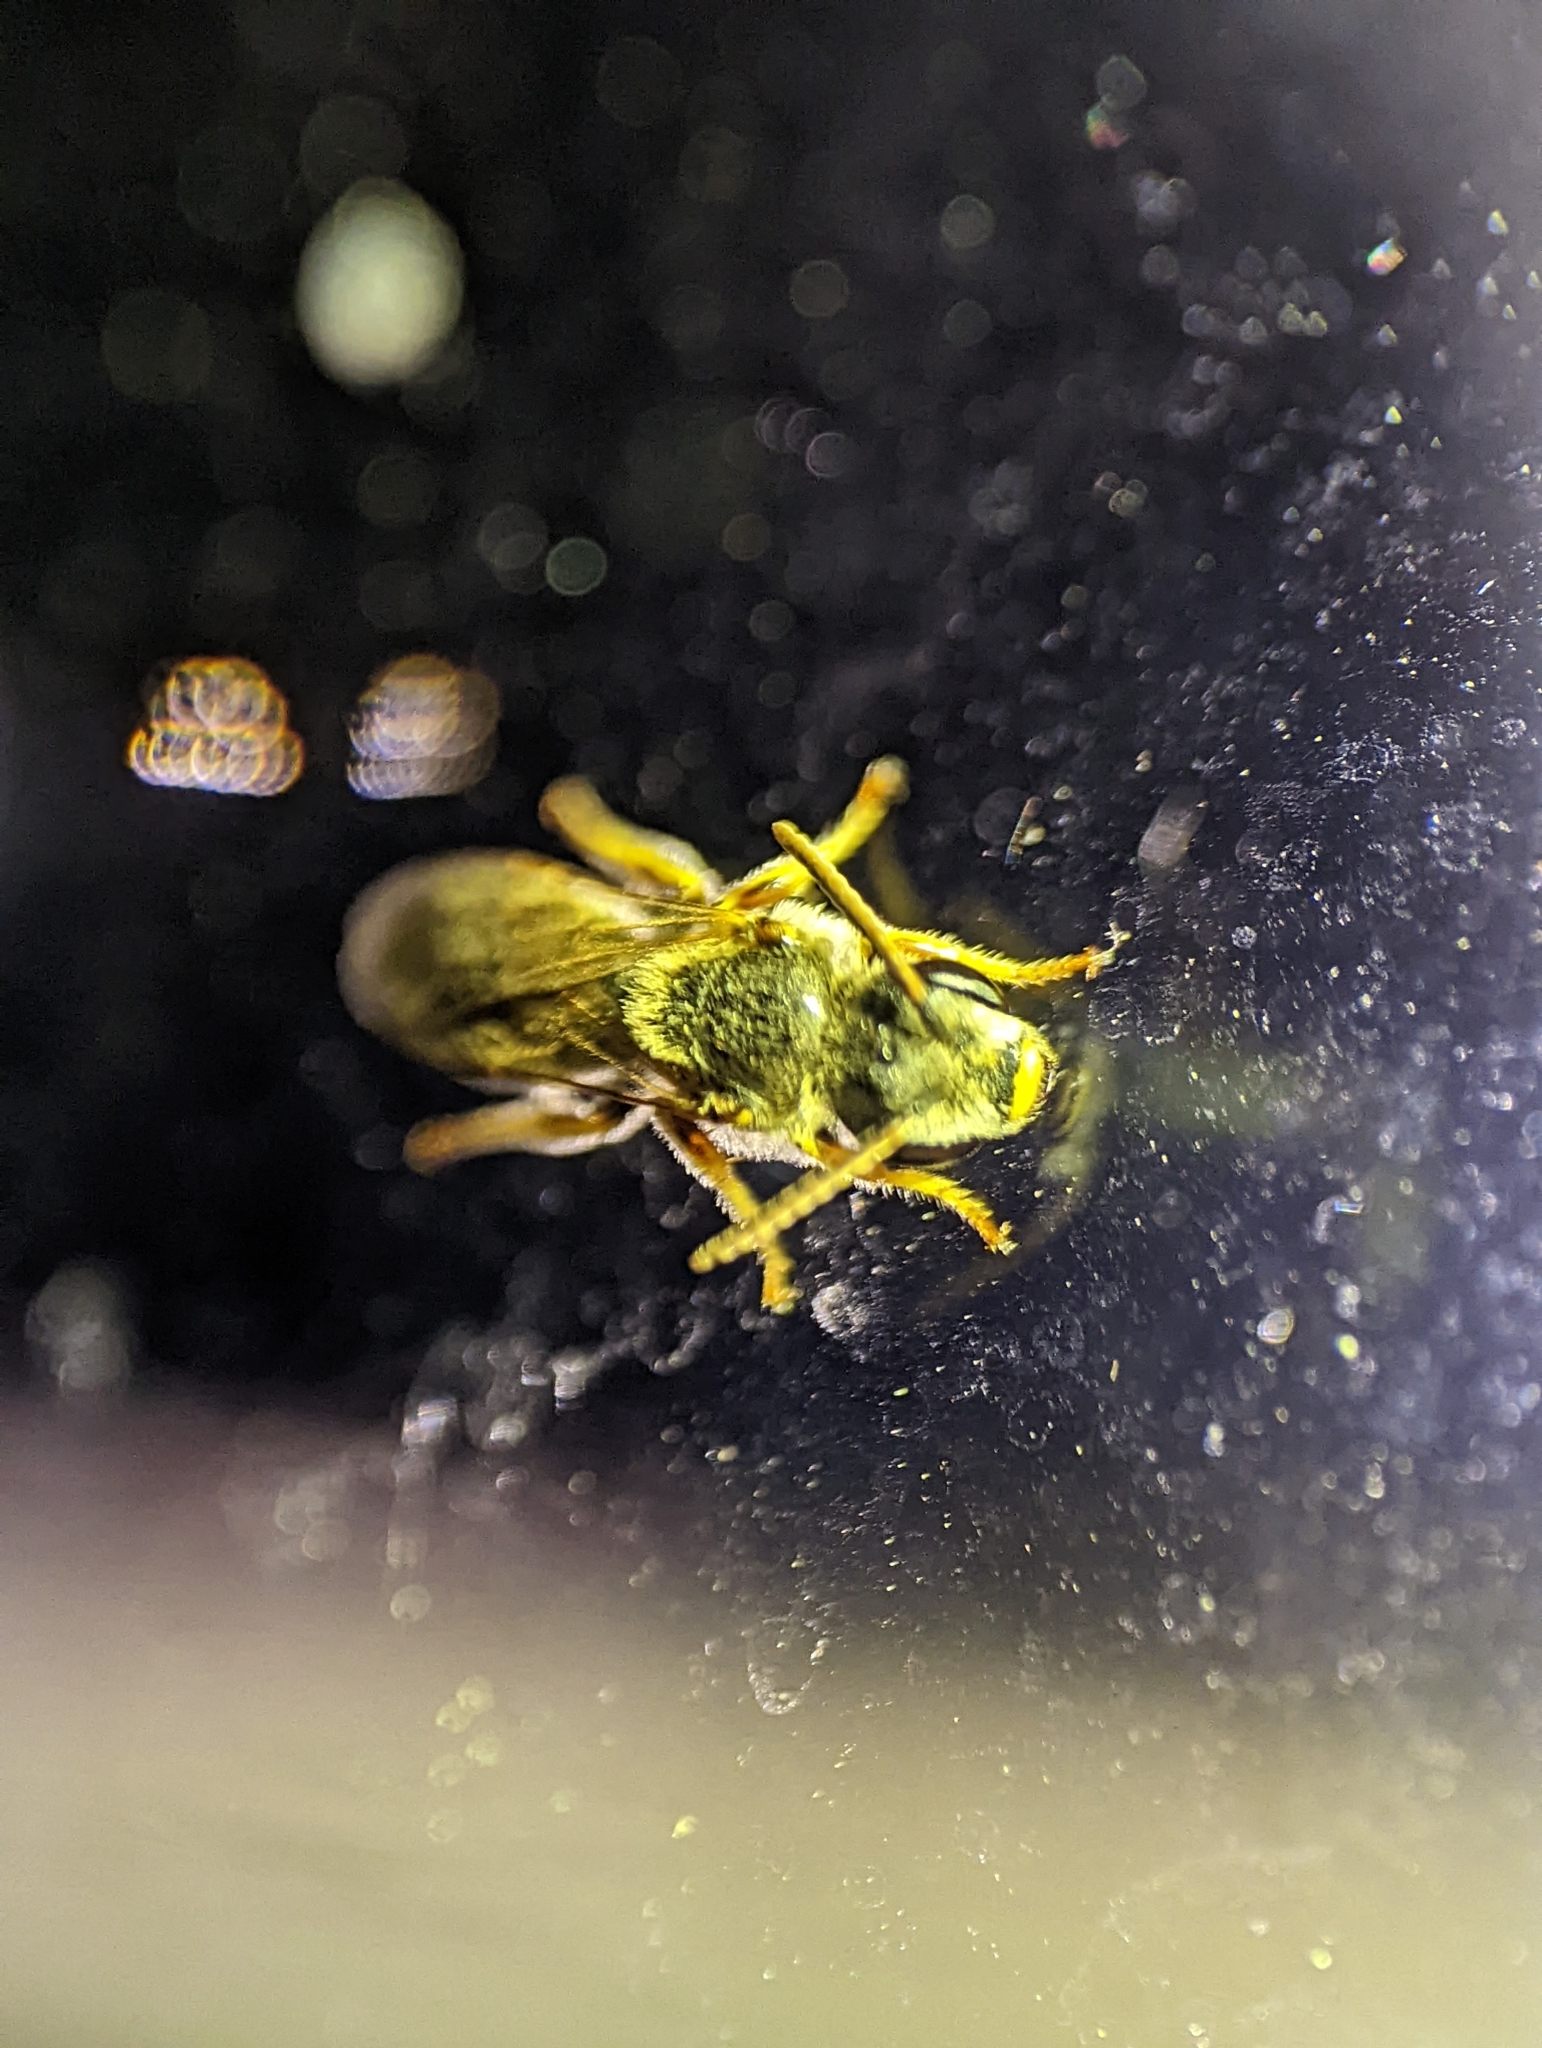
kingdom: Animalia
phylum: Arthropoda
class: Insecta
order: Hymenoptera
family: Halictidae
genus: Halictus
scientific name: Halictus ligatus
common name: Ligated furrow bee
